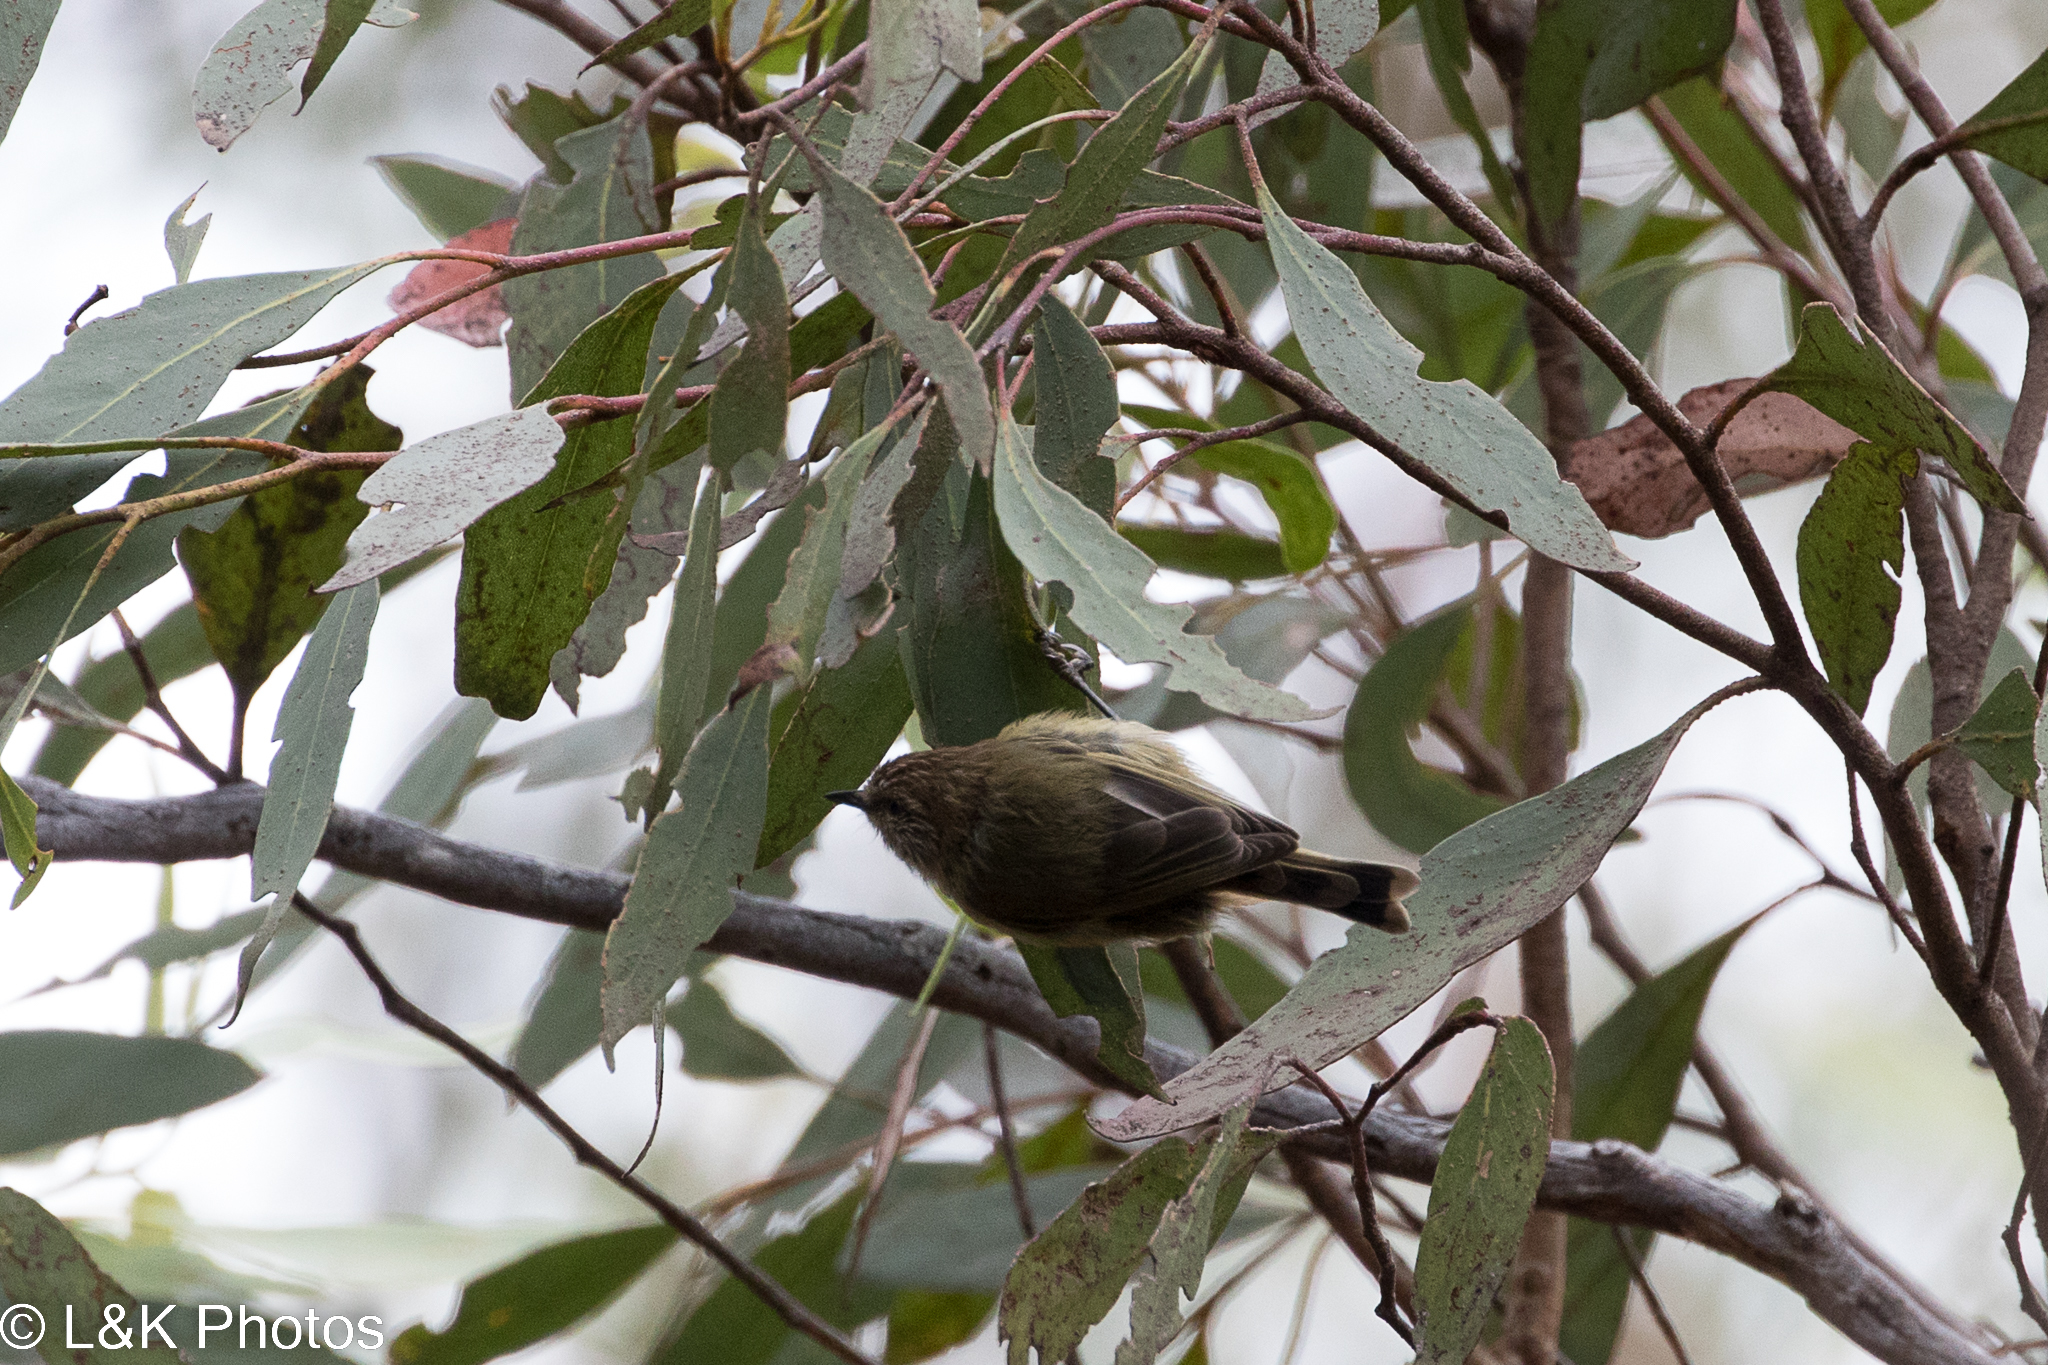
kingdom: Animalia
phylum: Chordata
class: Aves
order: Passeriformes
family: Acanthizidae
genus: Acanthiza
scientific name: Acanthiza lineata
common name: Striated thornbill
